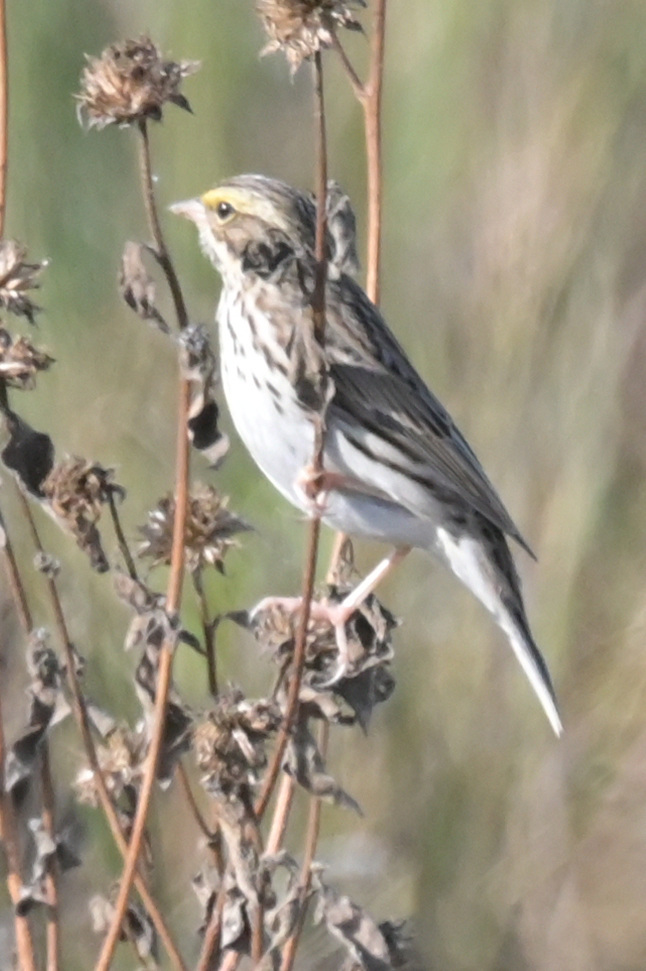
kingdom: Animalia
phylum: Chordata
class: Aves
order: Passeriformes
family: Passerellidae
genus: Passerculus
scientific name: Passerculus sandwichensis
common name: Savannah sparrow
